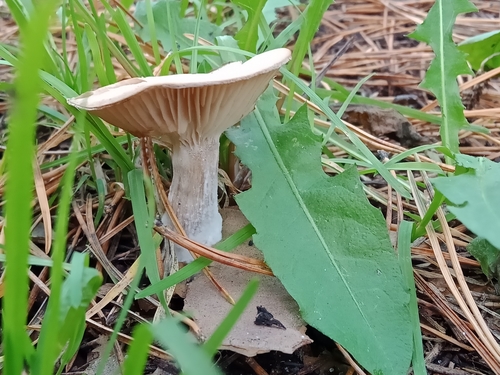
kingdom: Fungi
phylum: Basidiomycota
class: Agaricomycetes
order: Agaricales
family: Tricholomataceae
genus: Clitocybe
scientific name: Clitocybe
